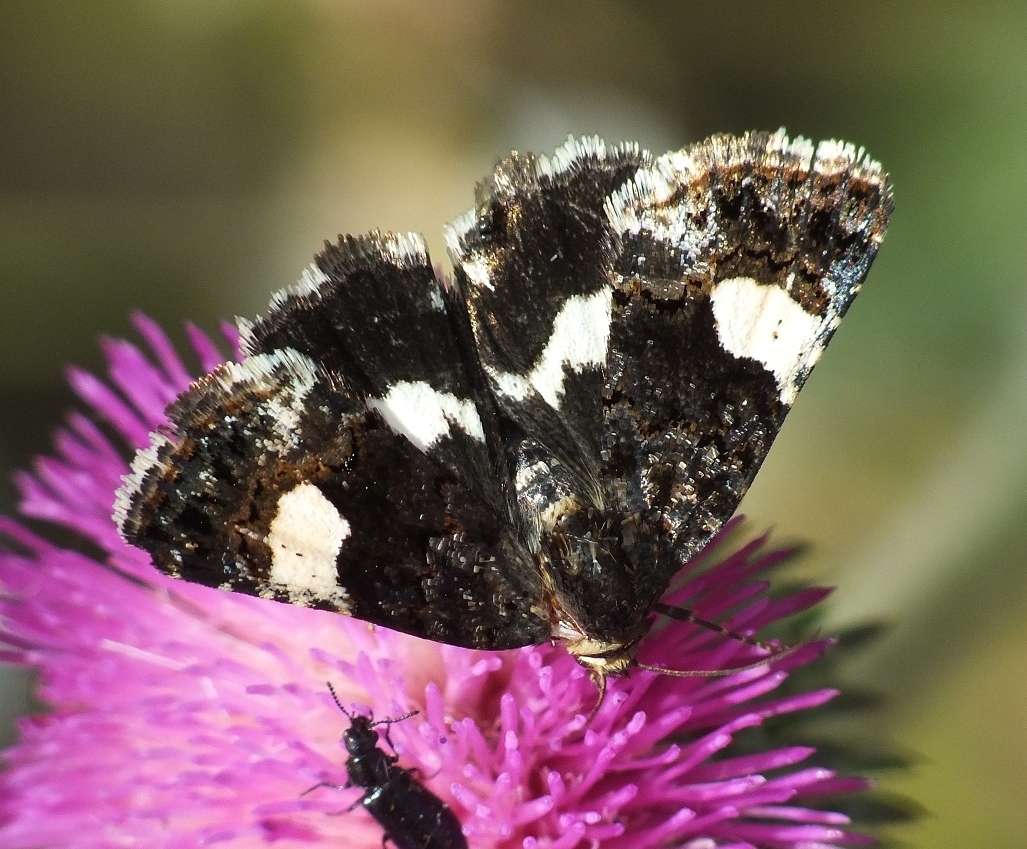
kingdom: Animalia
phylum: Arthropoda
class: Insecta
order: Lepidoptera
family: Erebidae
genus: Tyta
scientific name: Tyta luctuosa
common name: Four-spotted
